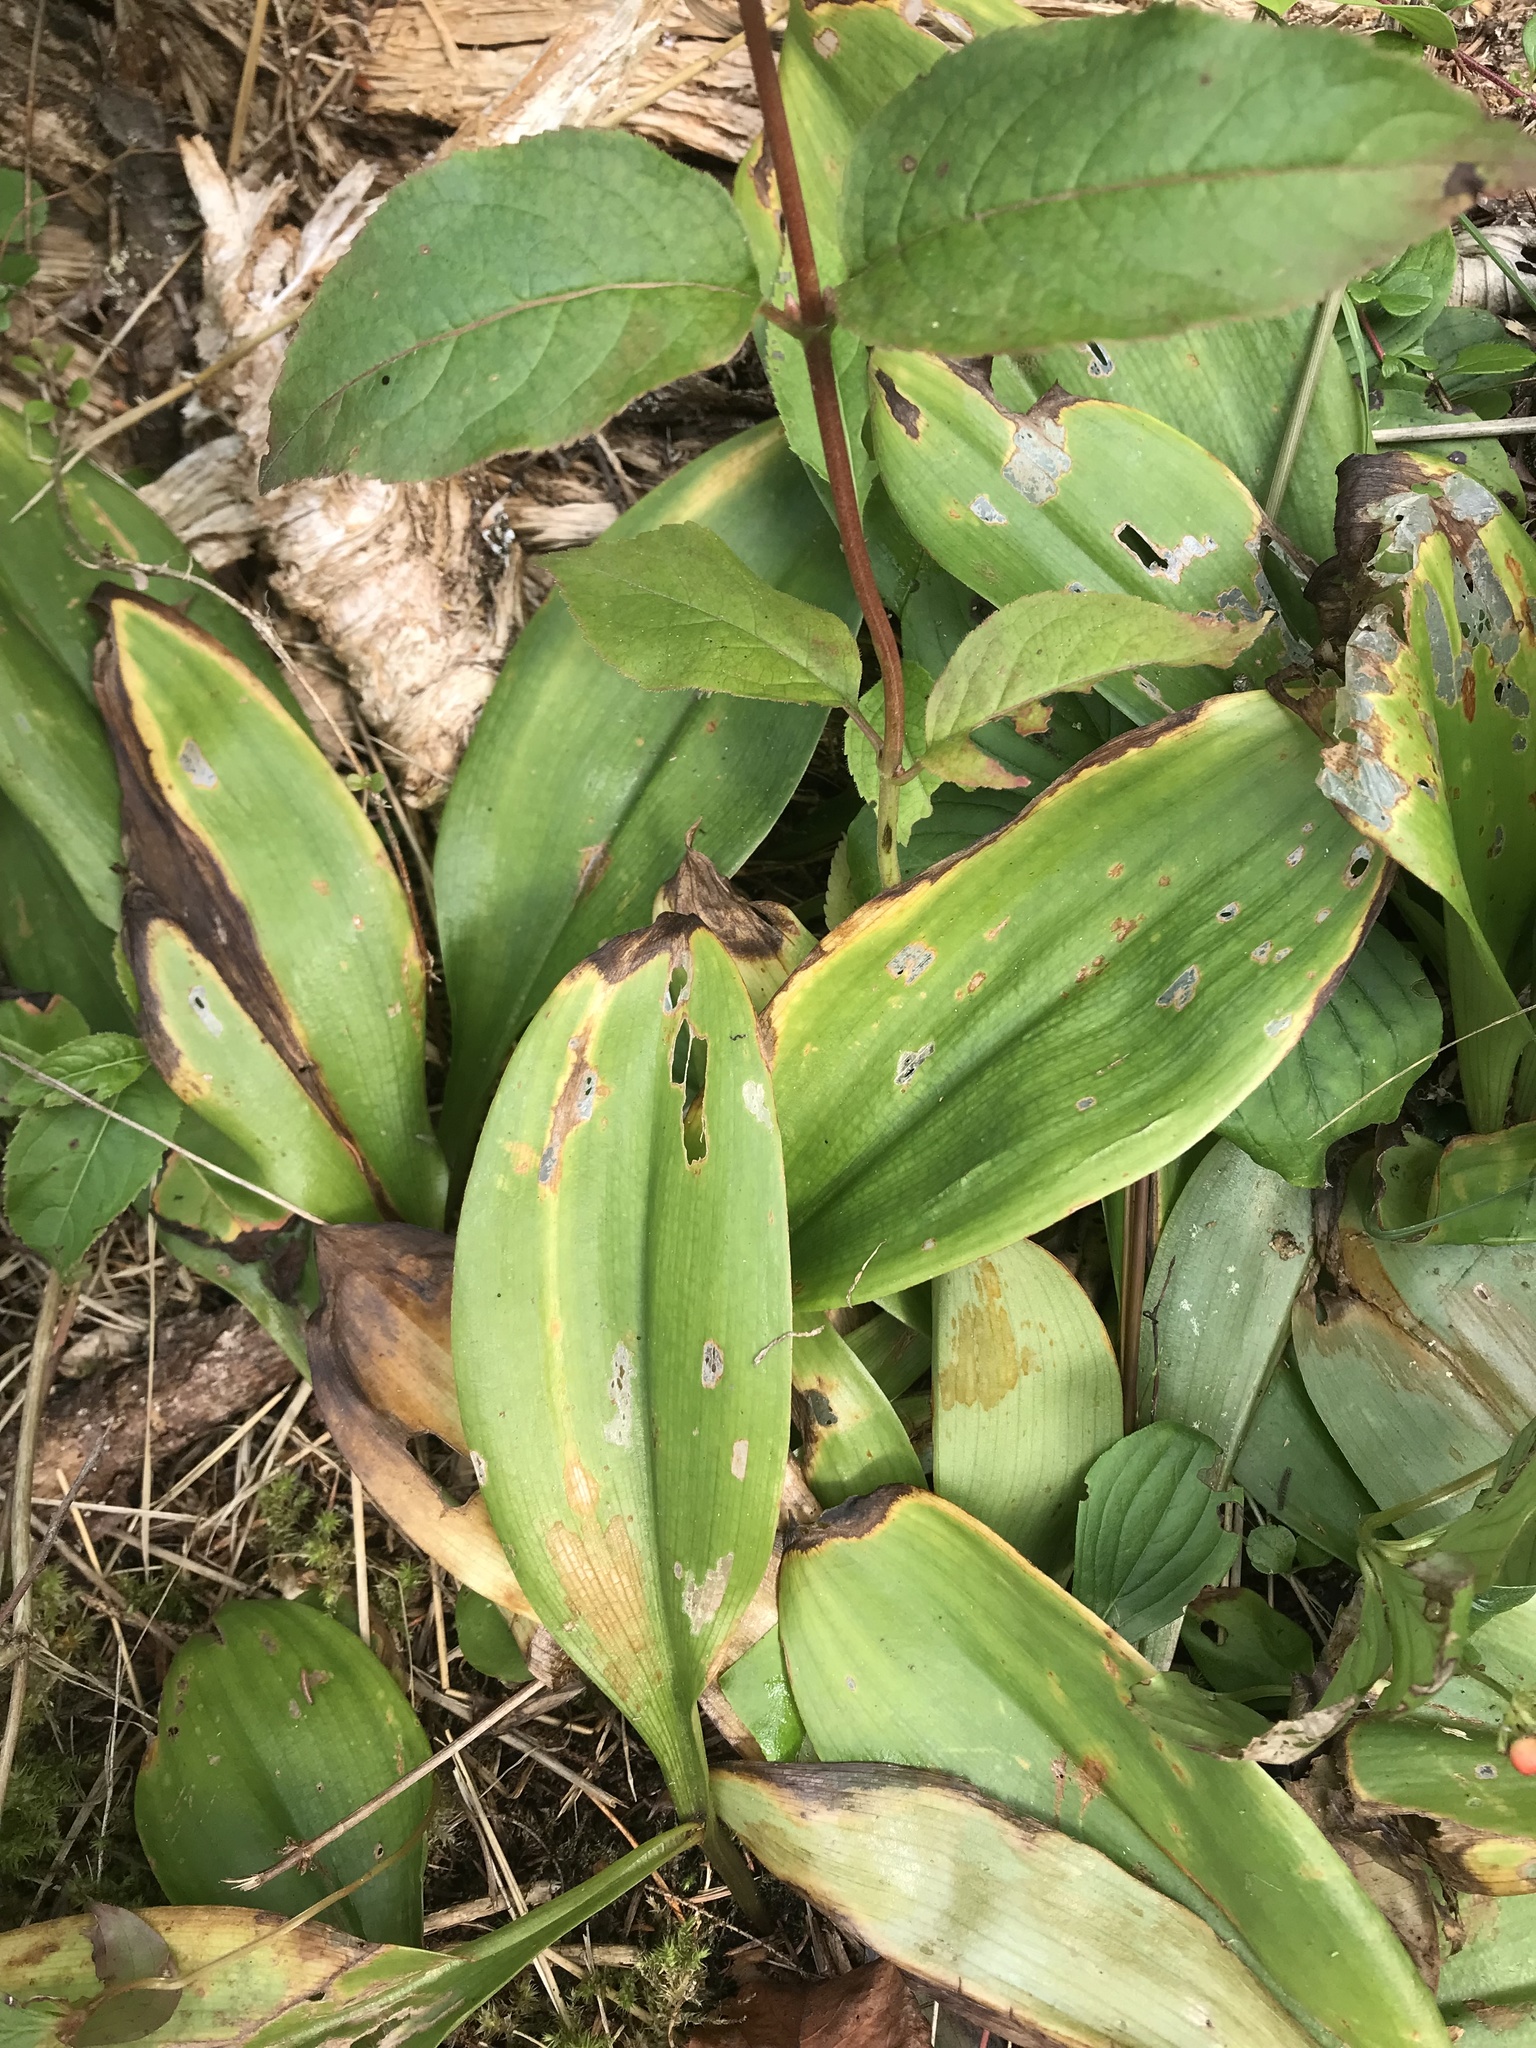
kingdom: Plantae
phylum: Tracheophyta
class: Liliopsida
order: Liliales
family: Liliaceae
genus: Clintonia
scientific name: Clintonia borealis
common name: Yellow clintonia
